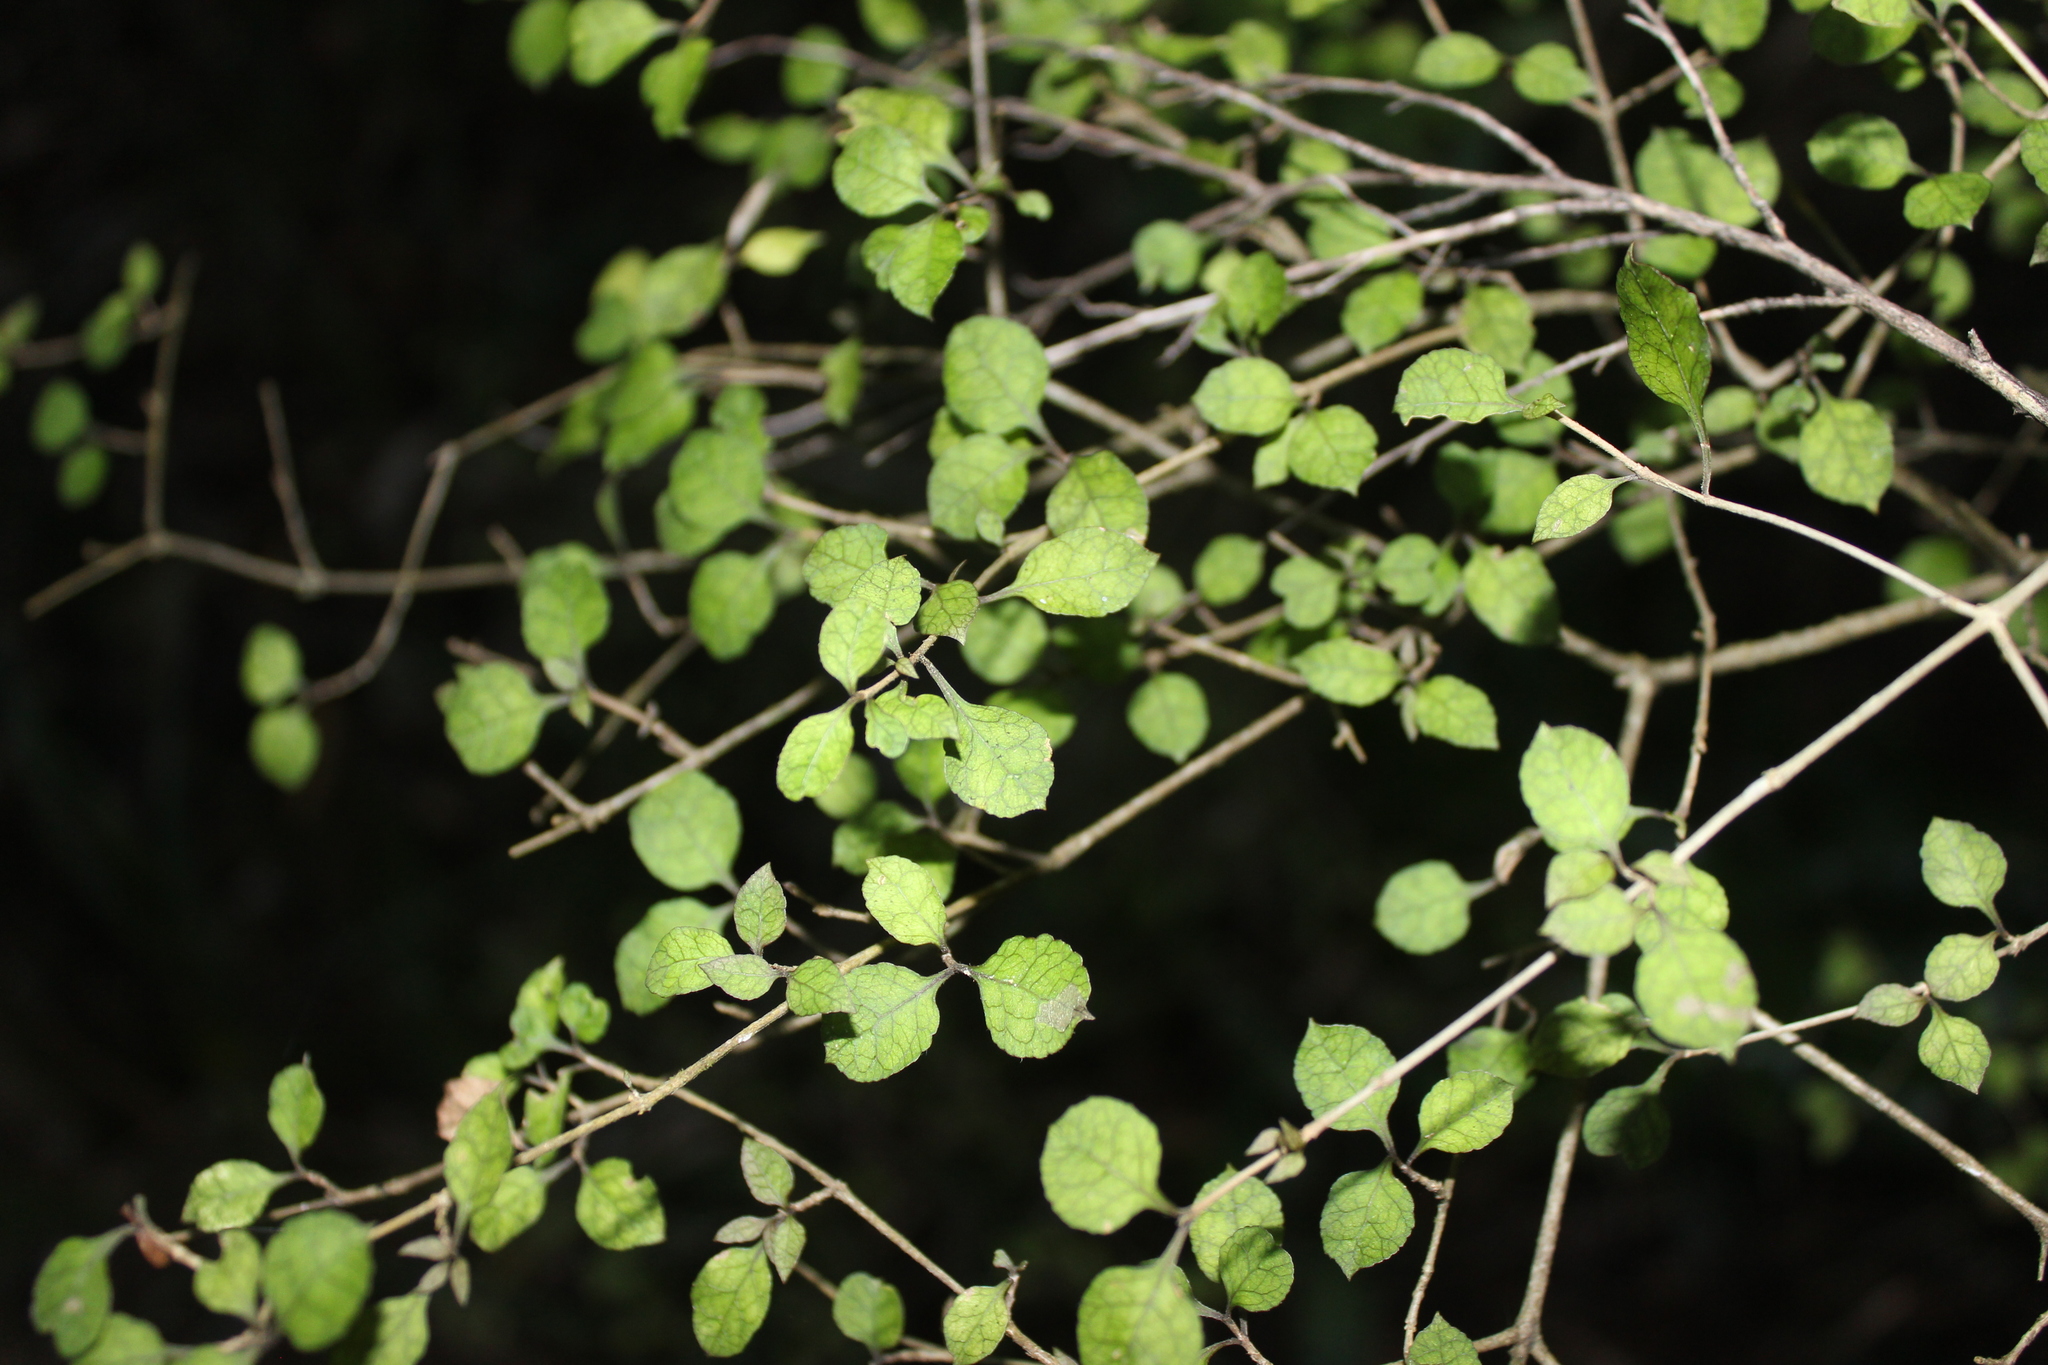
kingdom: Plantae
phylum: Tracheophyta
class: Magnoliopsida
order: Gentianales
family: Rubiaceae
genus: Coprosma
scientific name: Coprosma areolata
